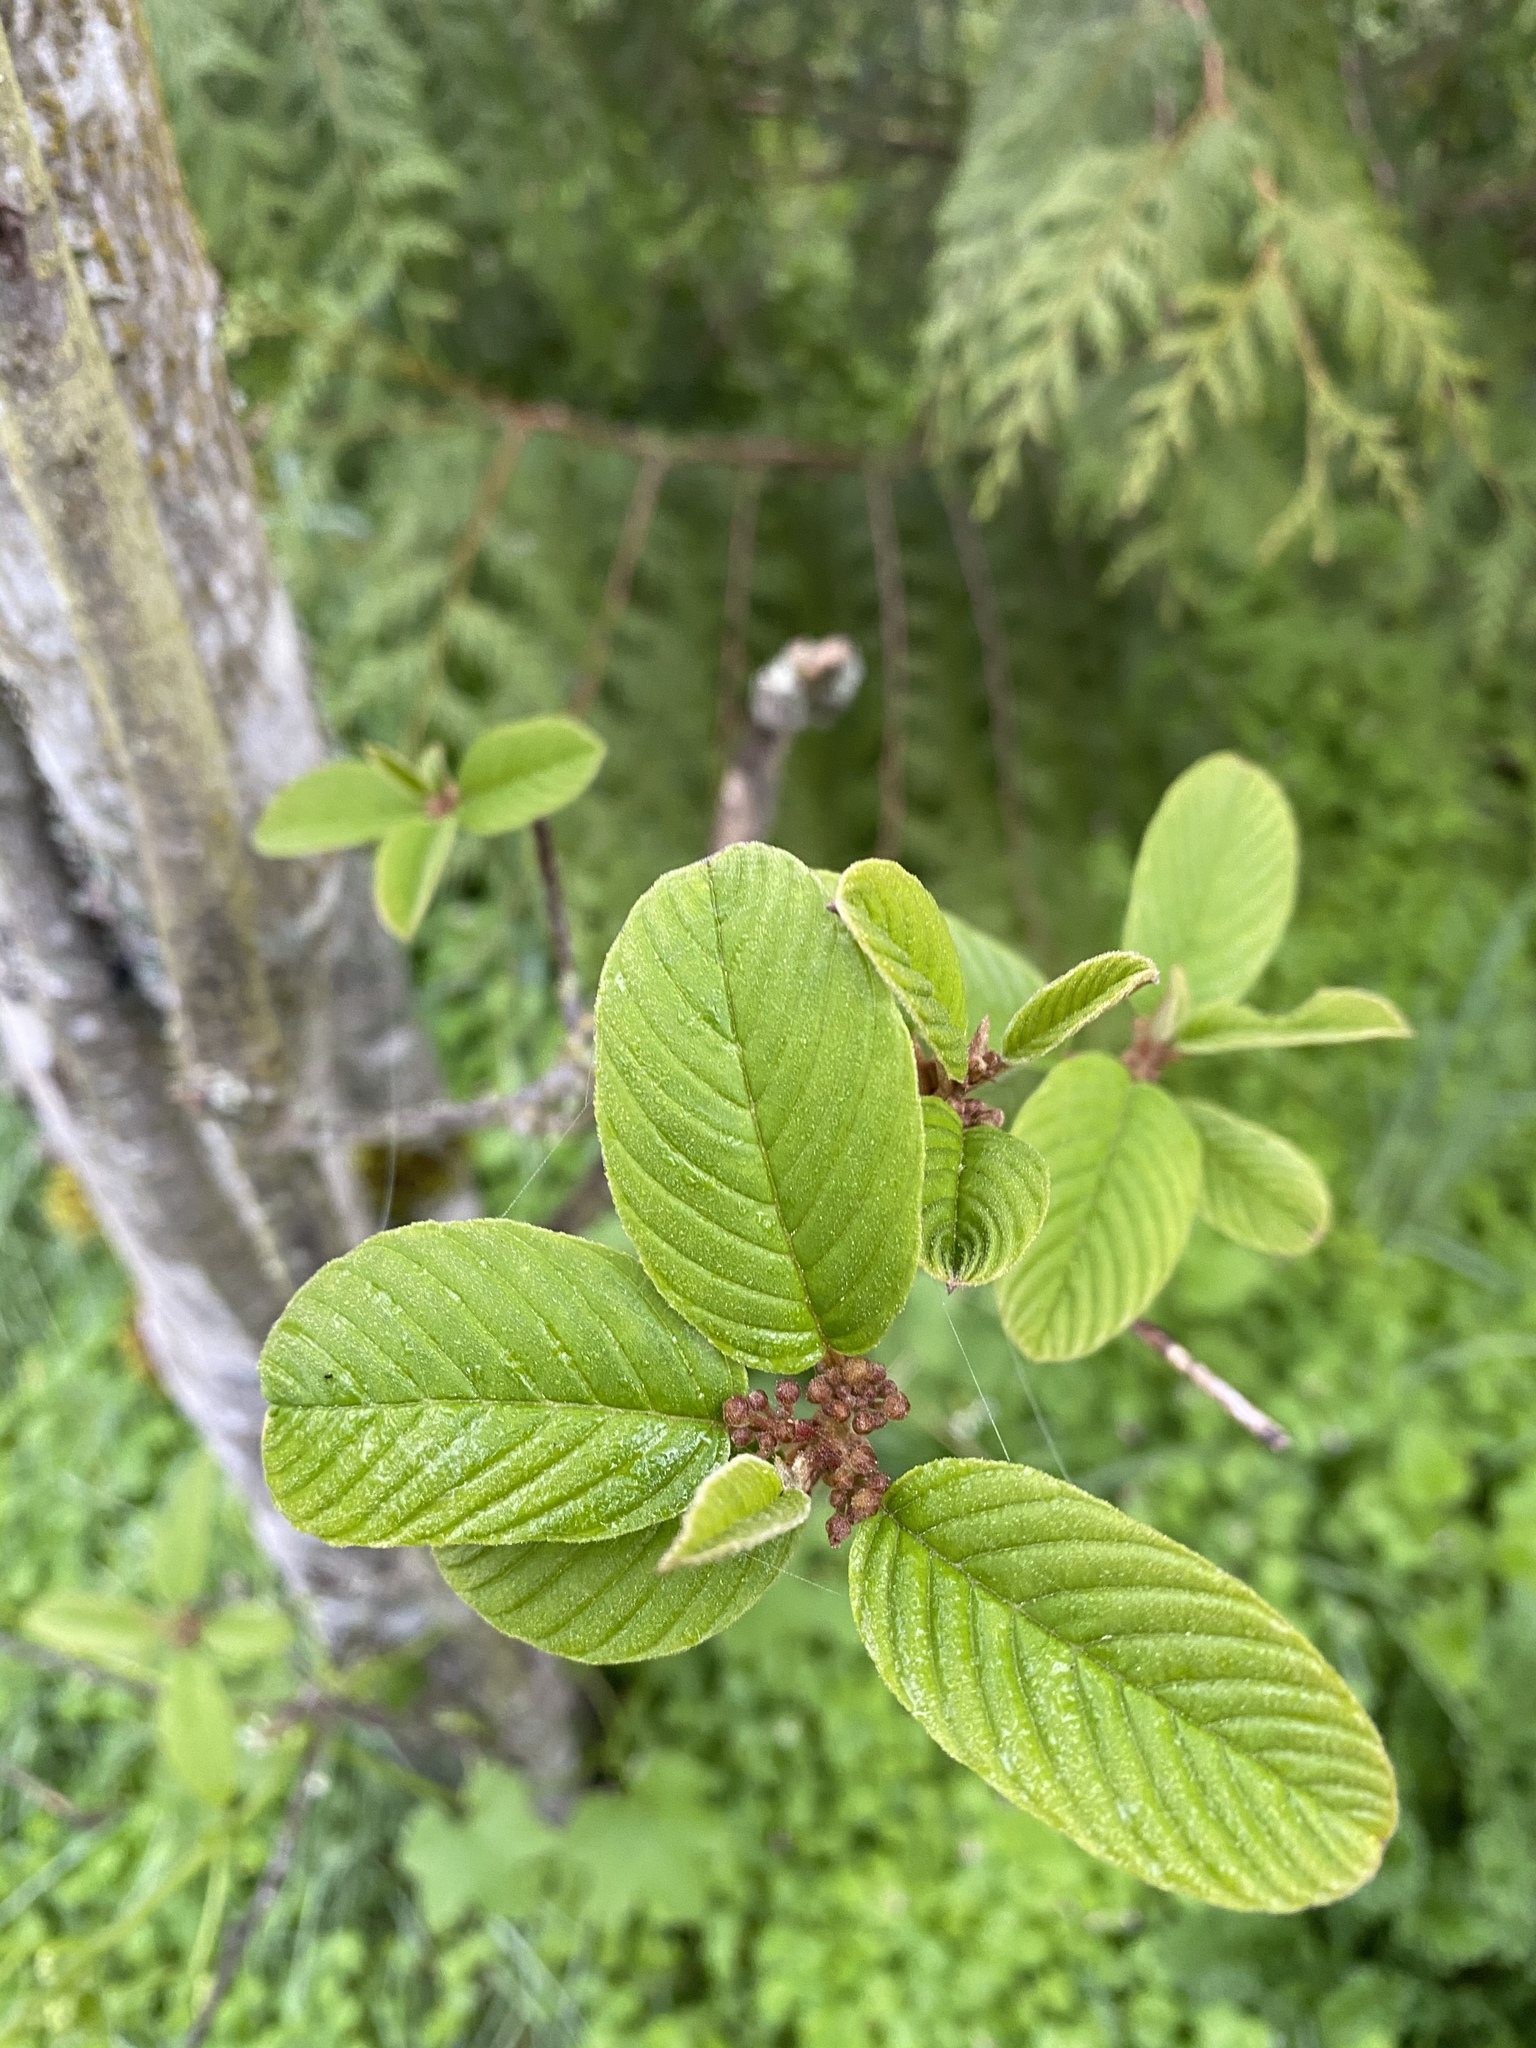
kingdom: Plantae
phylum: Tracheophyta
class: Magnoliopsida
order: Rosales
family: Rhamnaceae
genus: Frangula
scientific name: Frangula purshiana
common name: Cascara buckthorn
